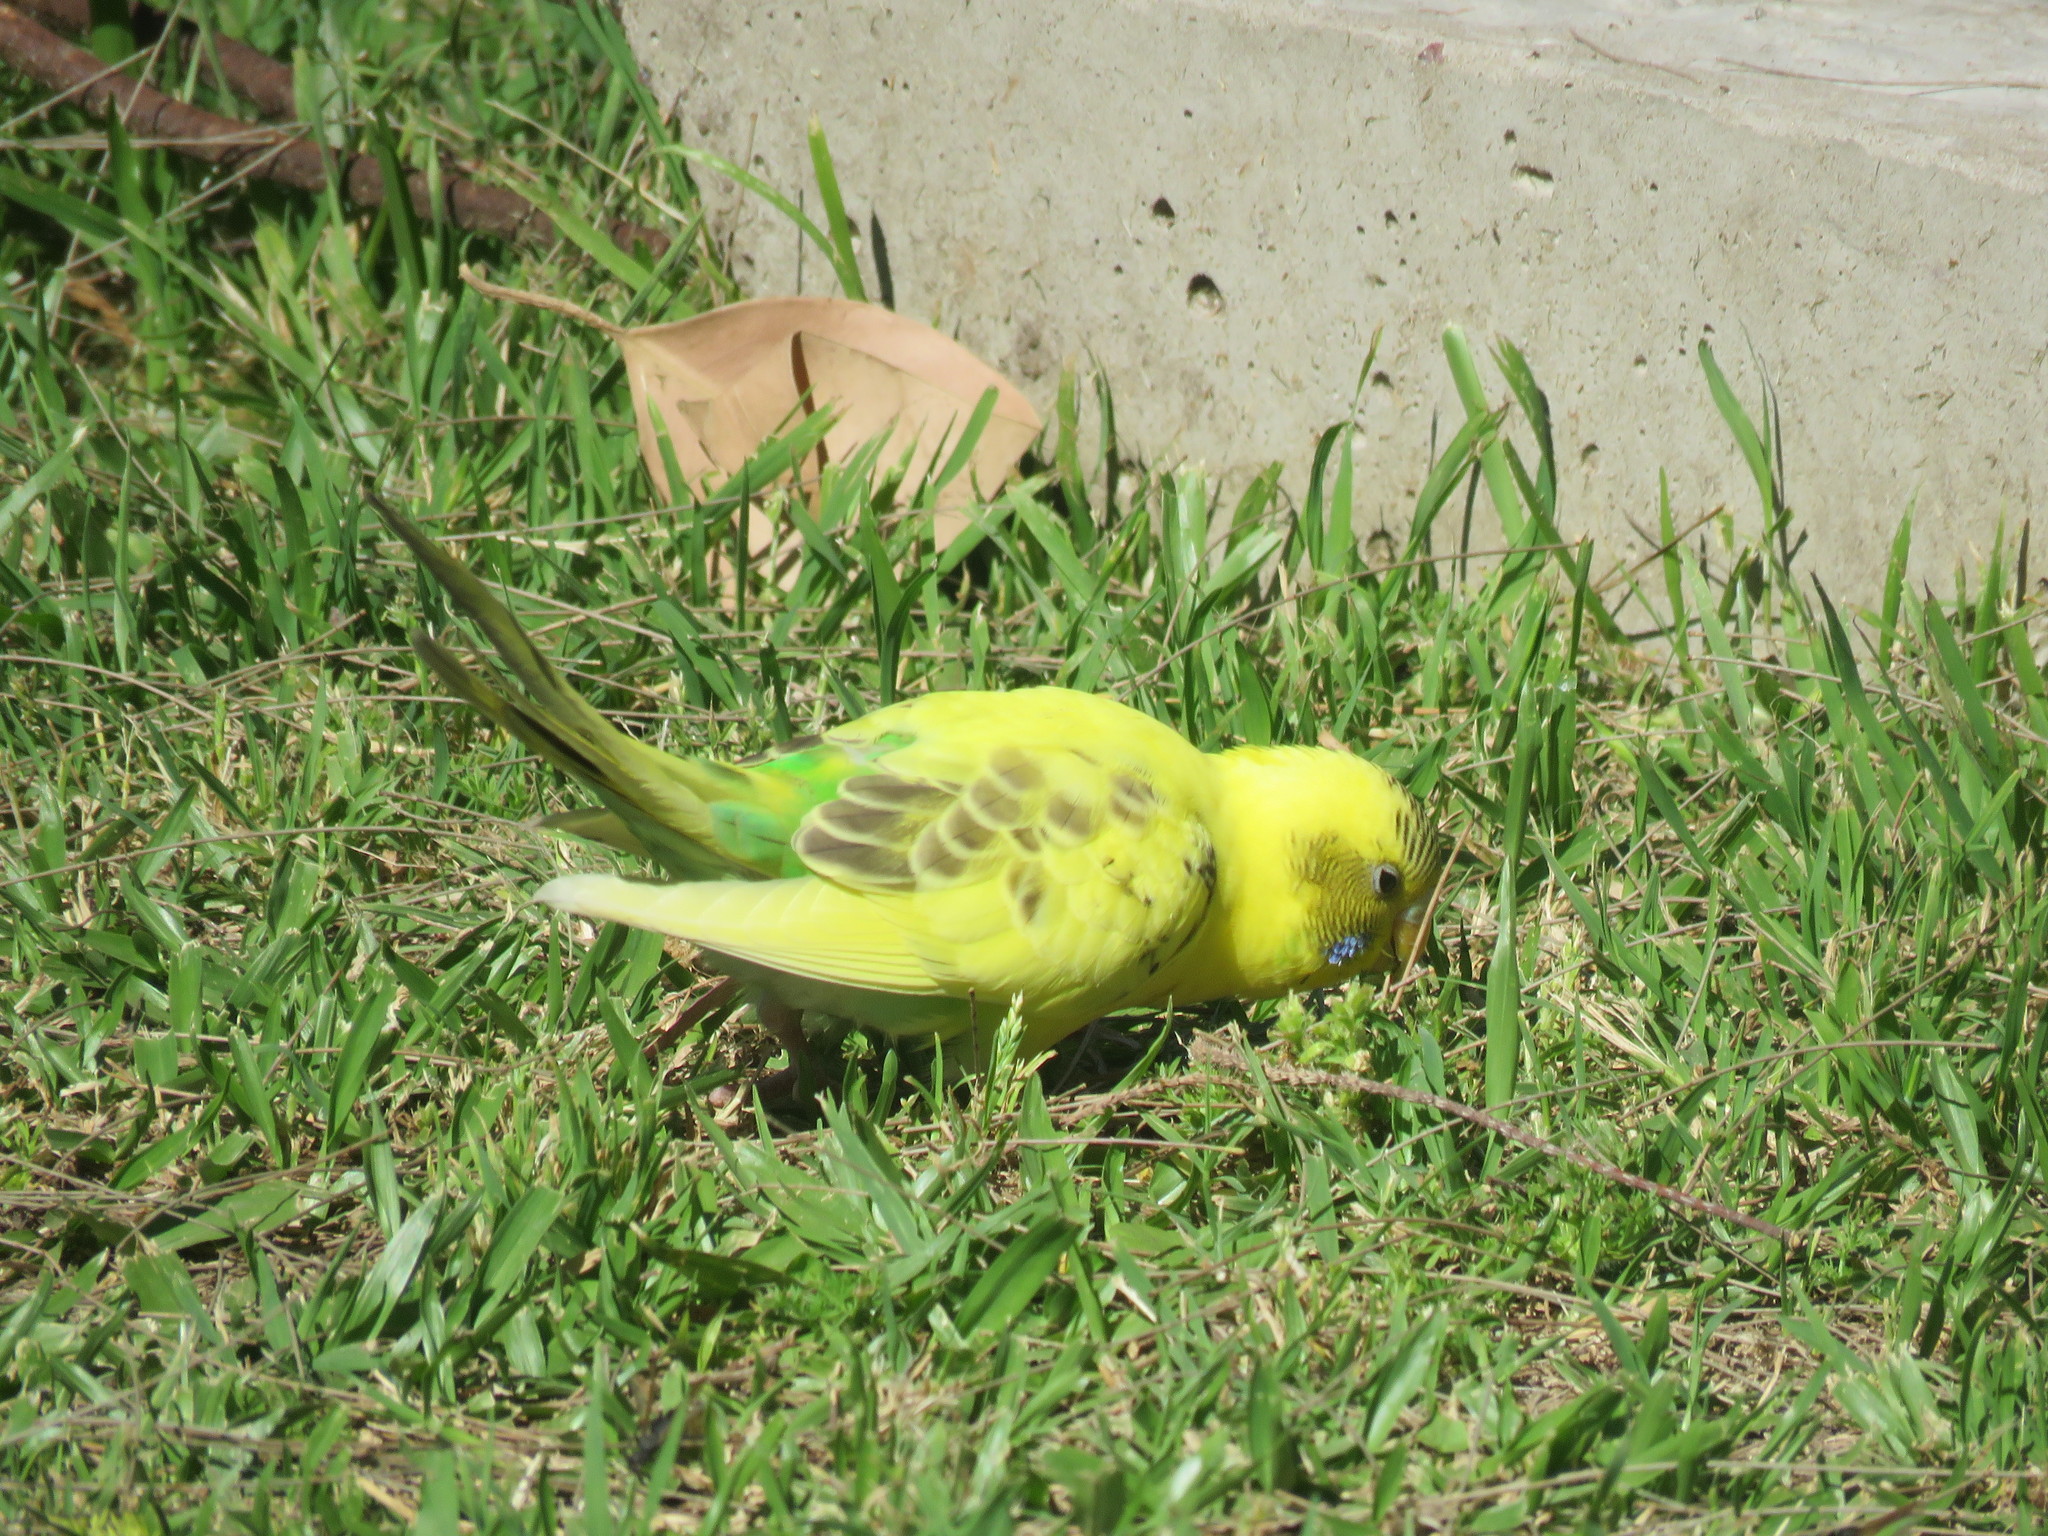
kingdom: Animalia
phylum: Chordata
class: Aves
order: Psittaciformes
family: Psittacidae
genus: Melopsittacus
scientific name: Melopsittacus undulatus
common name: Budgerigar
